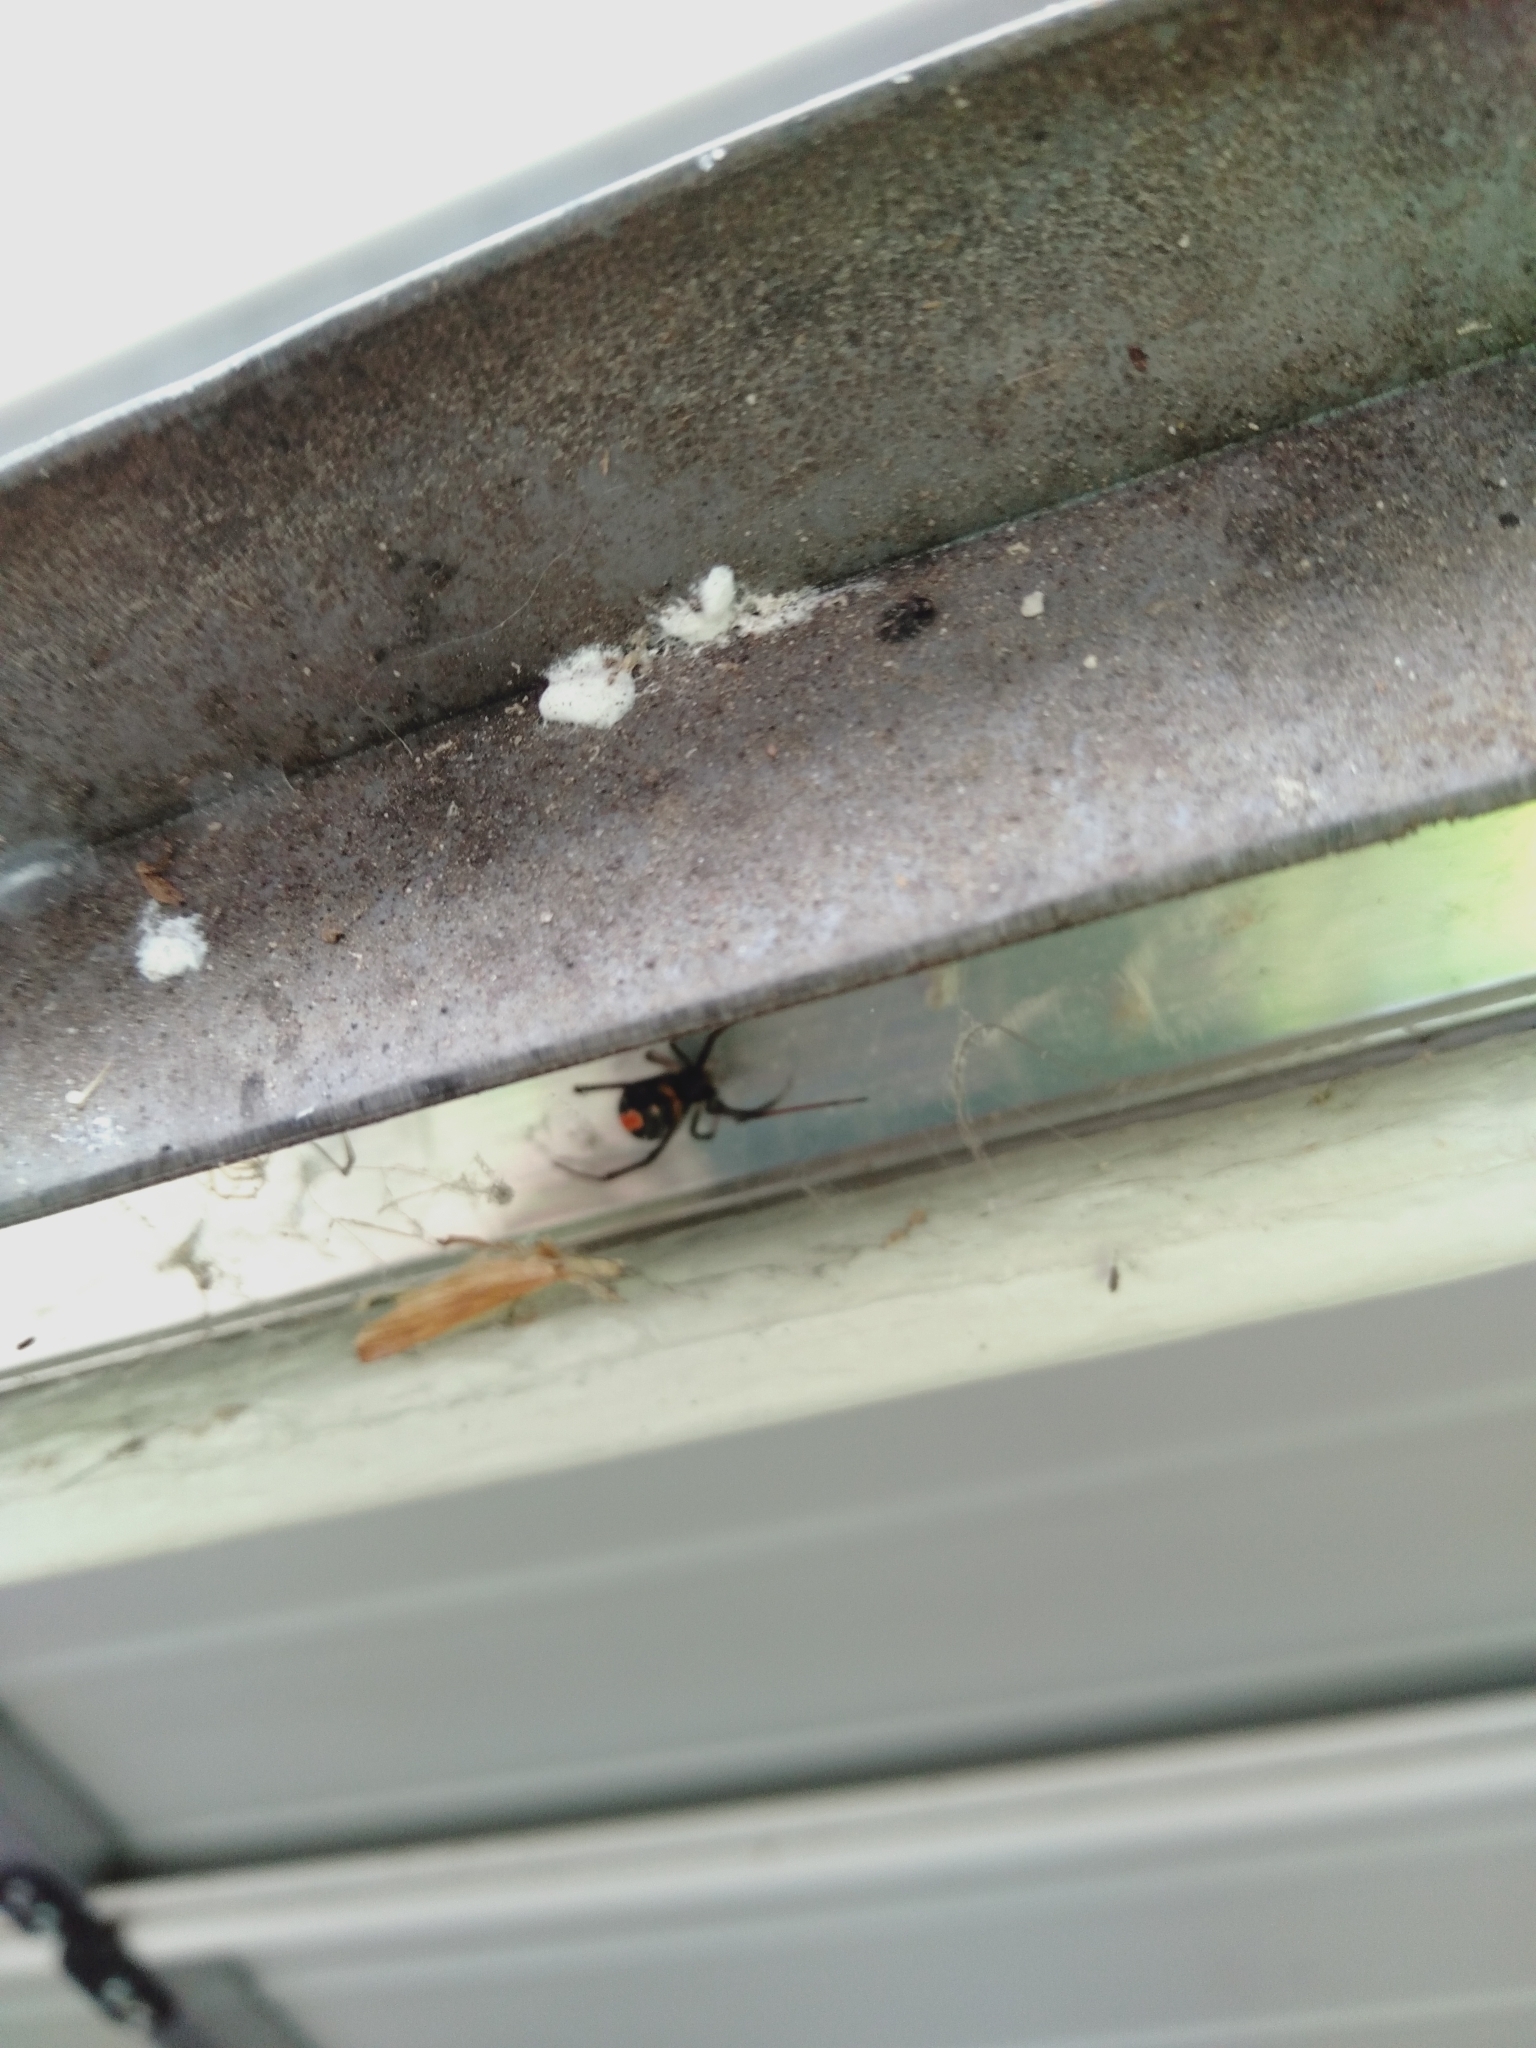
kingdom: Animalia
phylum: Arthropoda
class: Arachnida
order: Araneae
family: Theridiidae
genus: Latrodectus
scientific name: Latrodectus hasselti
